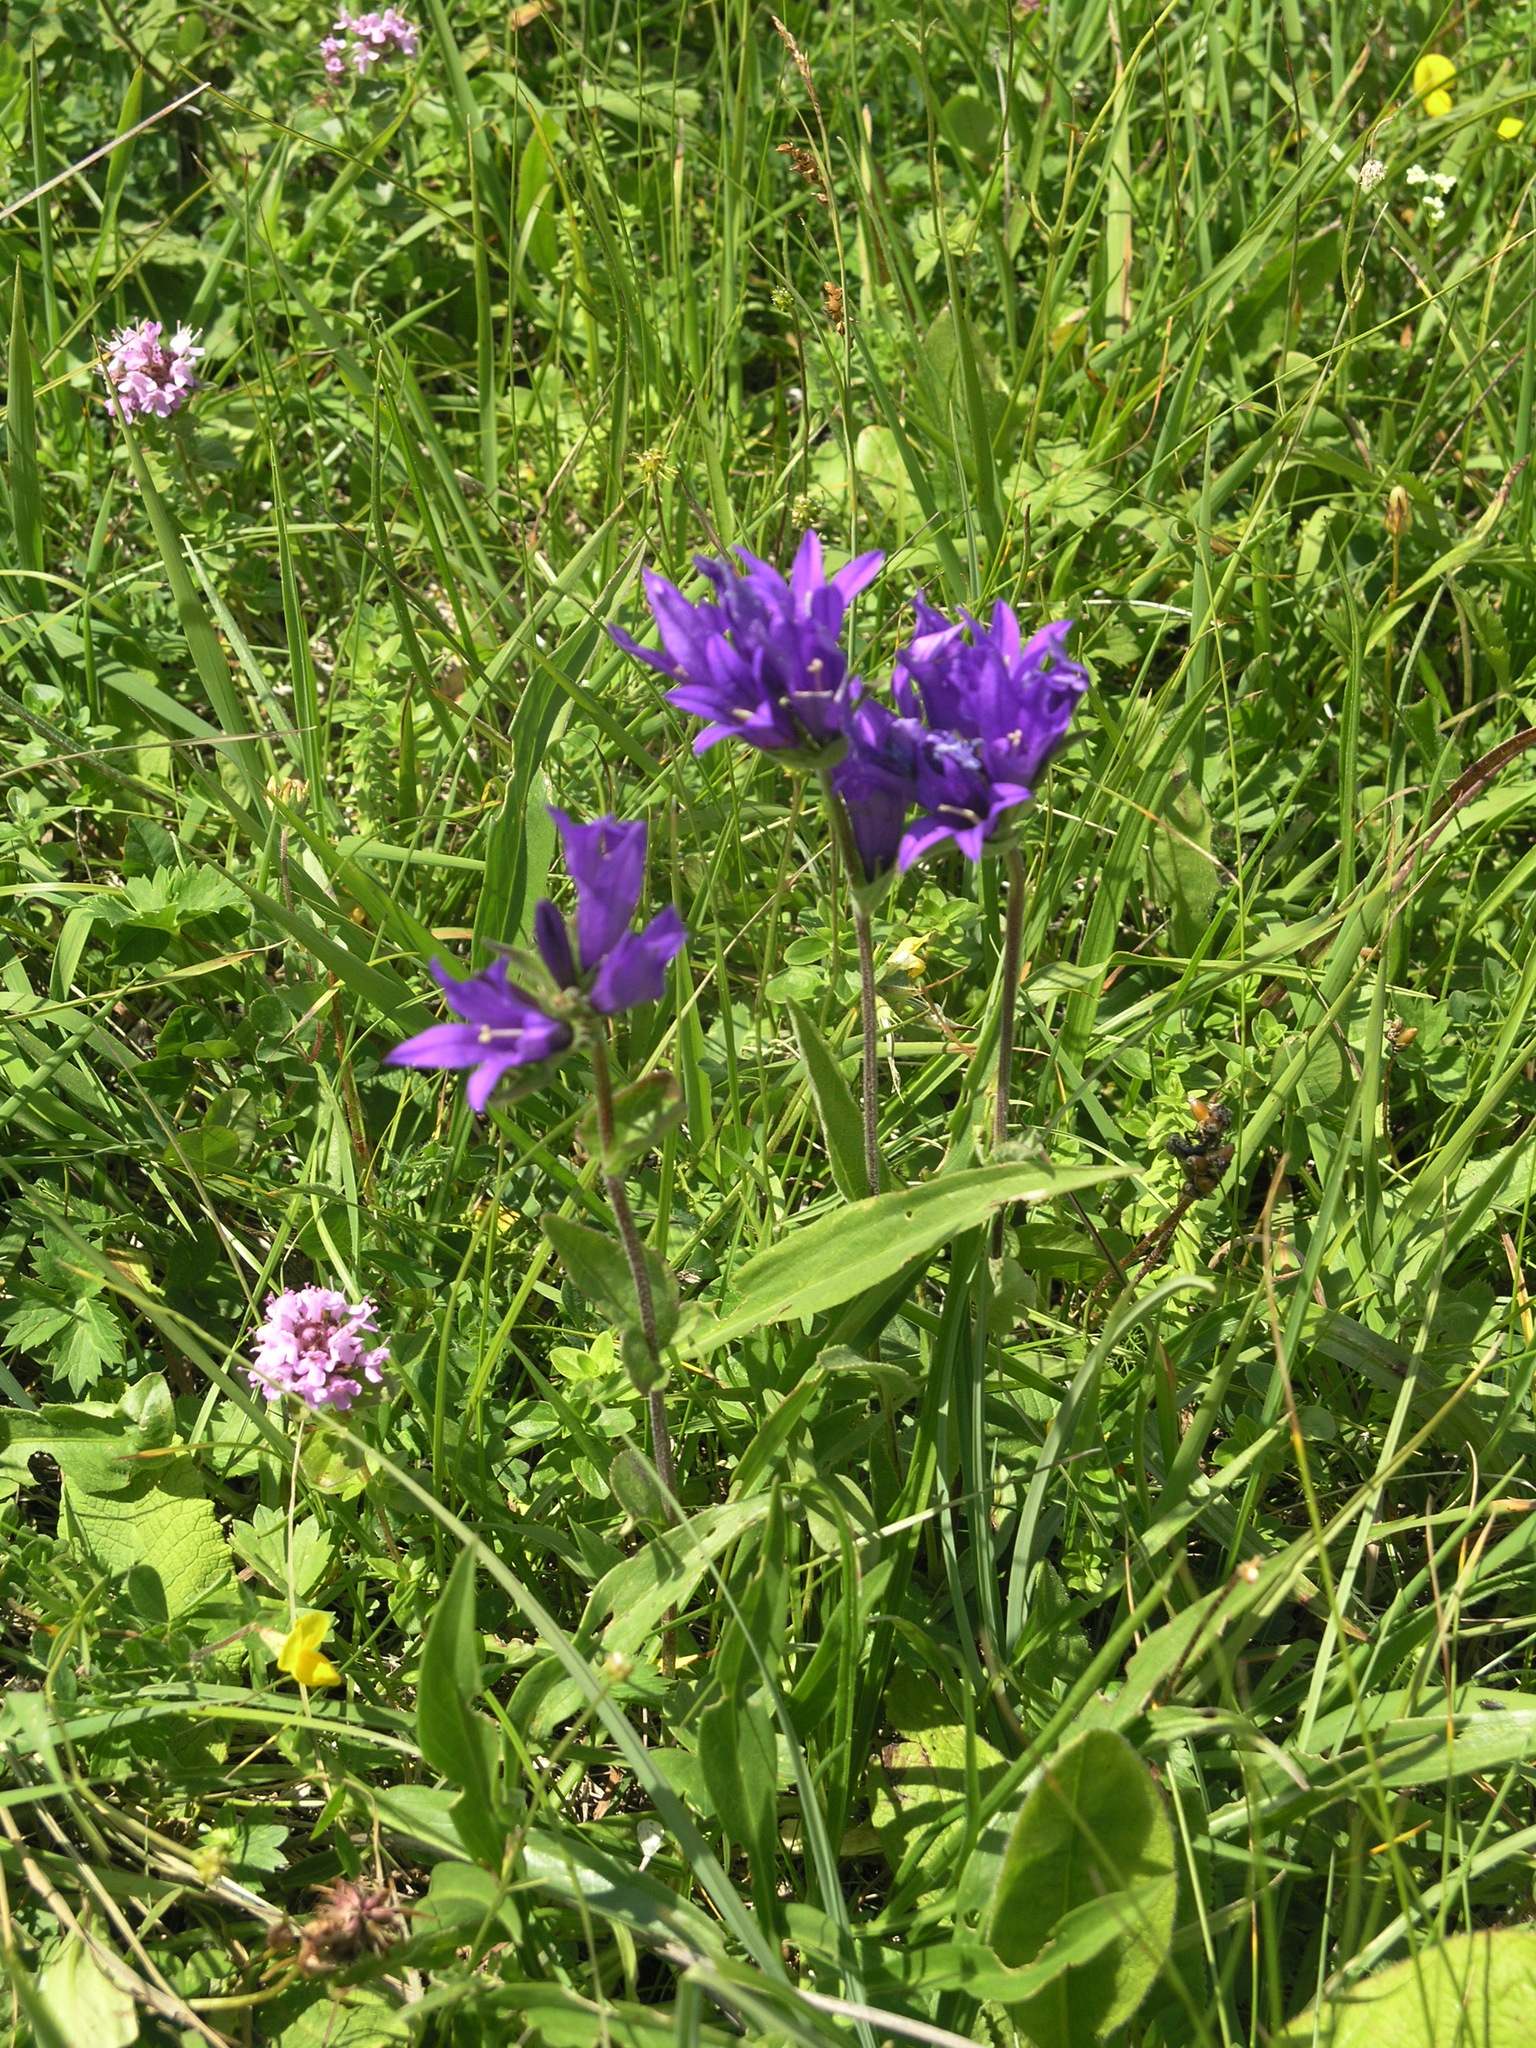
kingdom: Plantae
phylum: Tracheophyta
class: Magnoliopsida
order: Asterales
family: Campanulaceae
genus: Campanula
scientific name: Campanula glomerata
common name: Clustered bellflower
